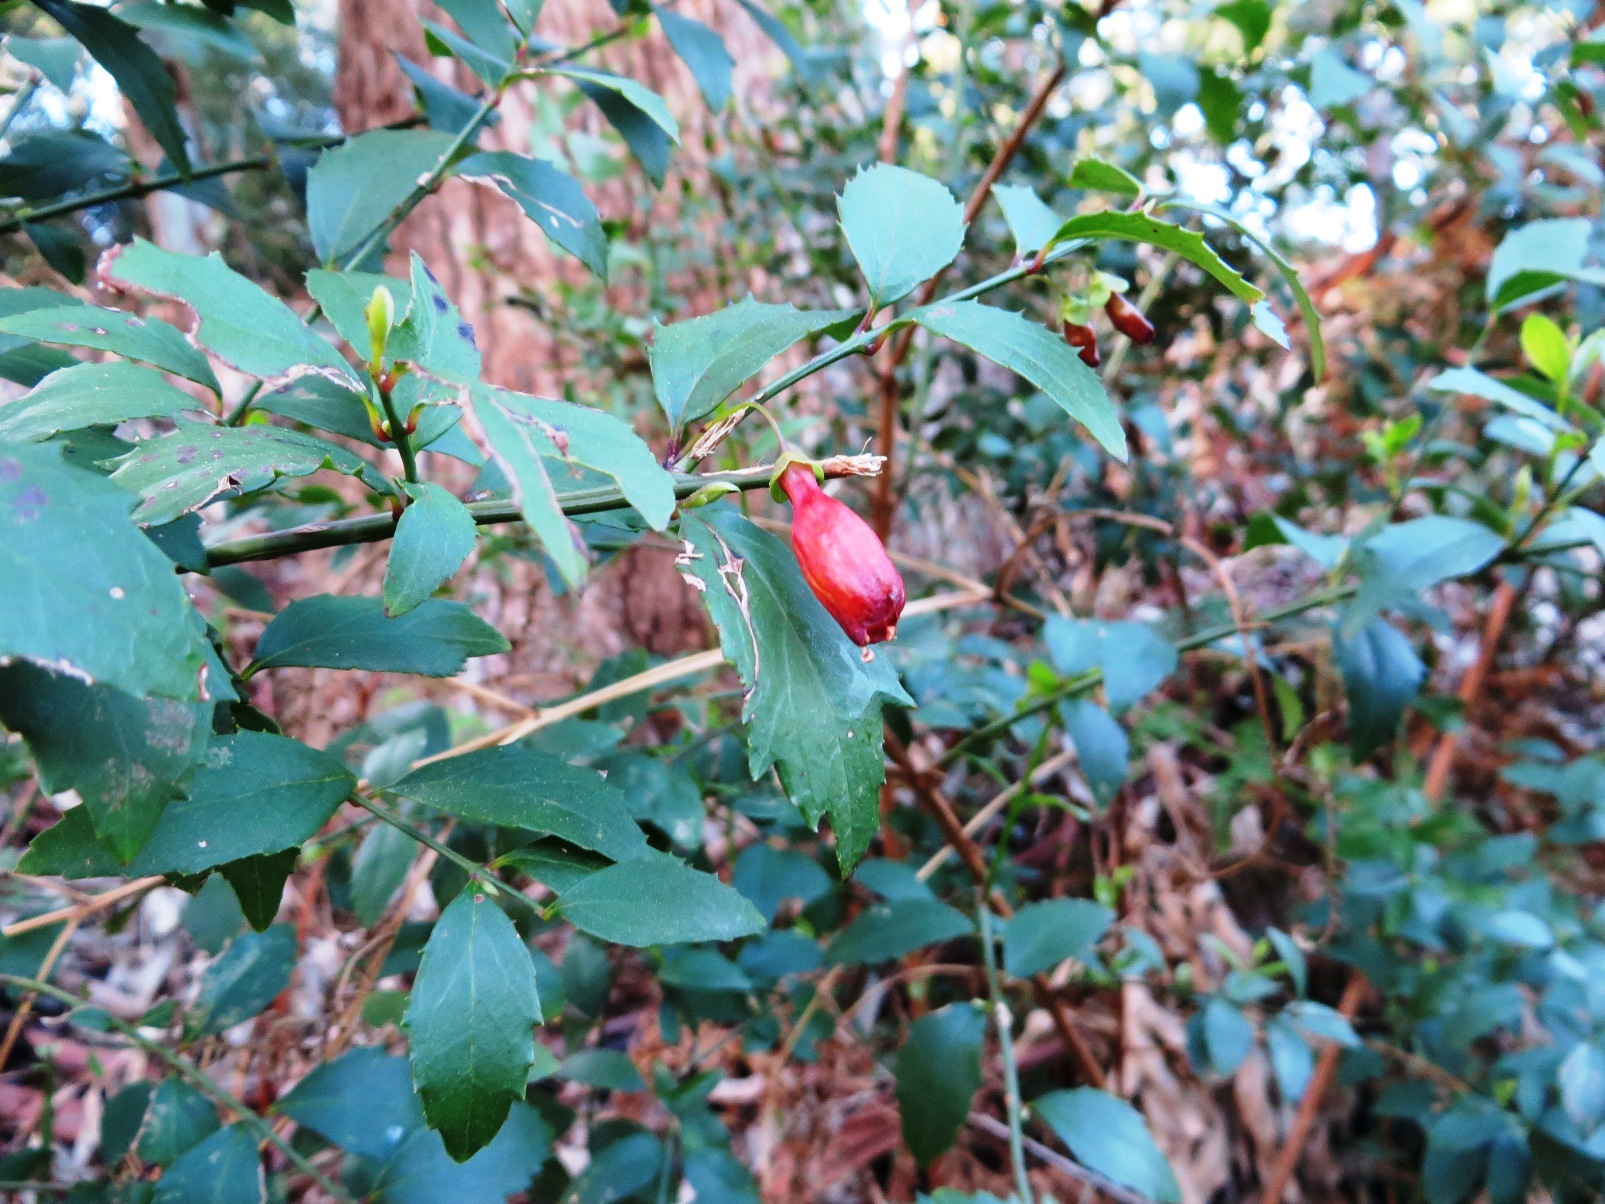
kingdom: Plantae
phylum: Tracheophyta
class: Magnoliopsida
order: Lamiales
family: Stilbaceae
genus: Halleria
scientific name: Halleria elliptica
